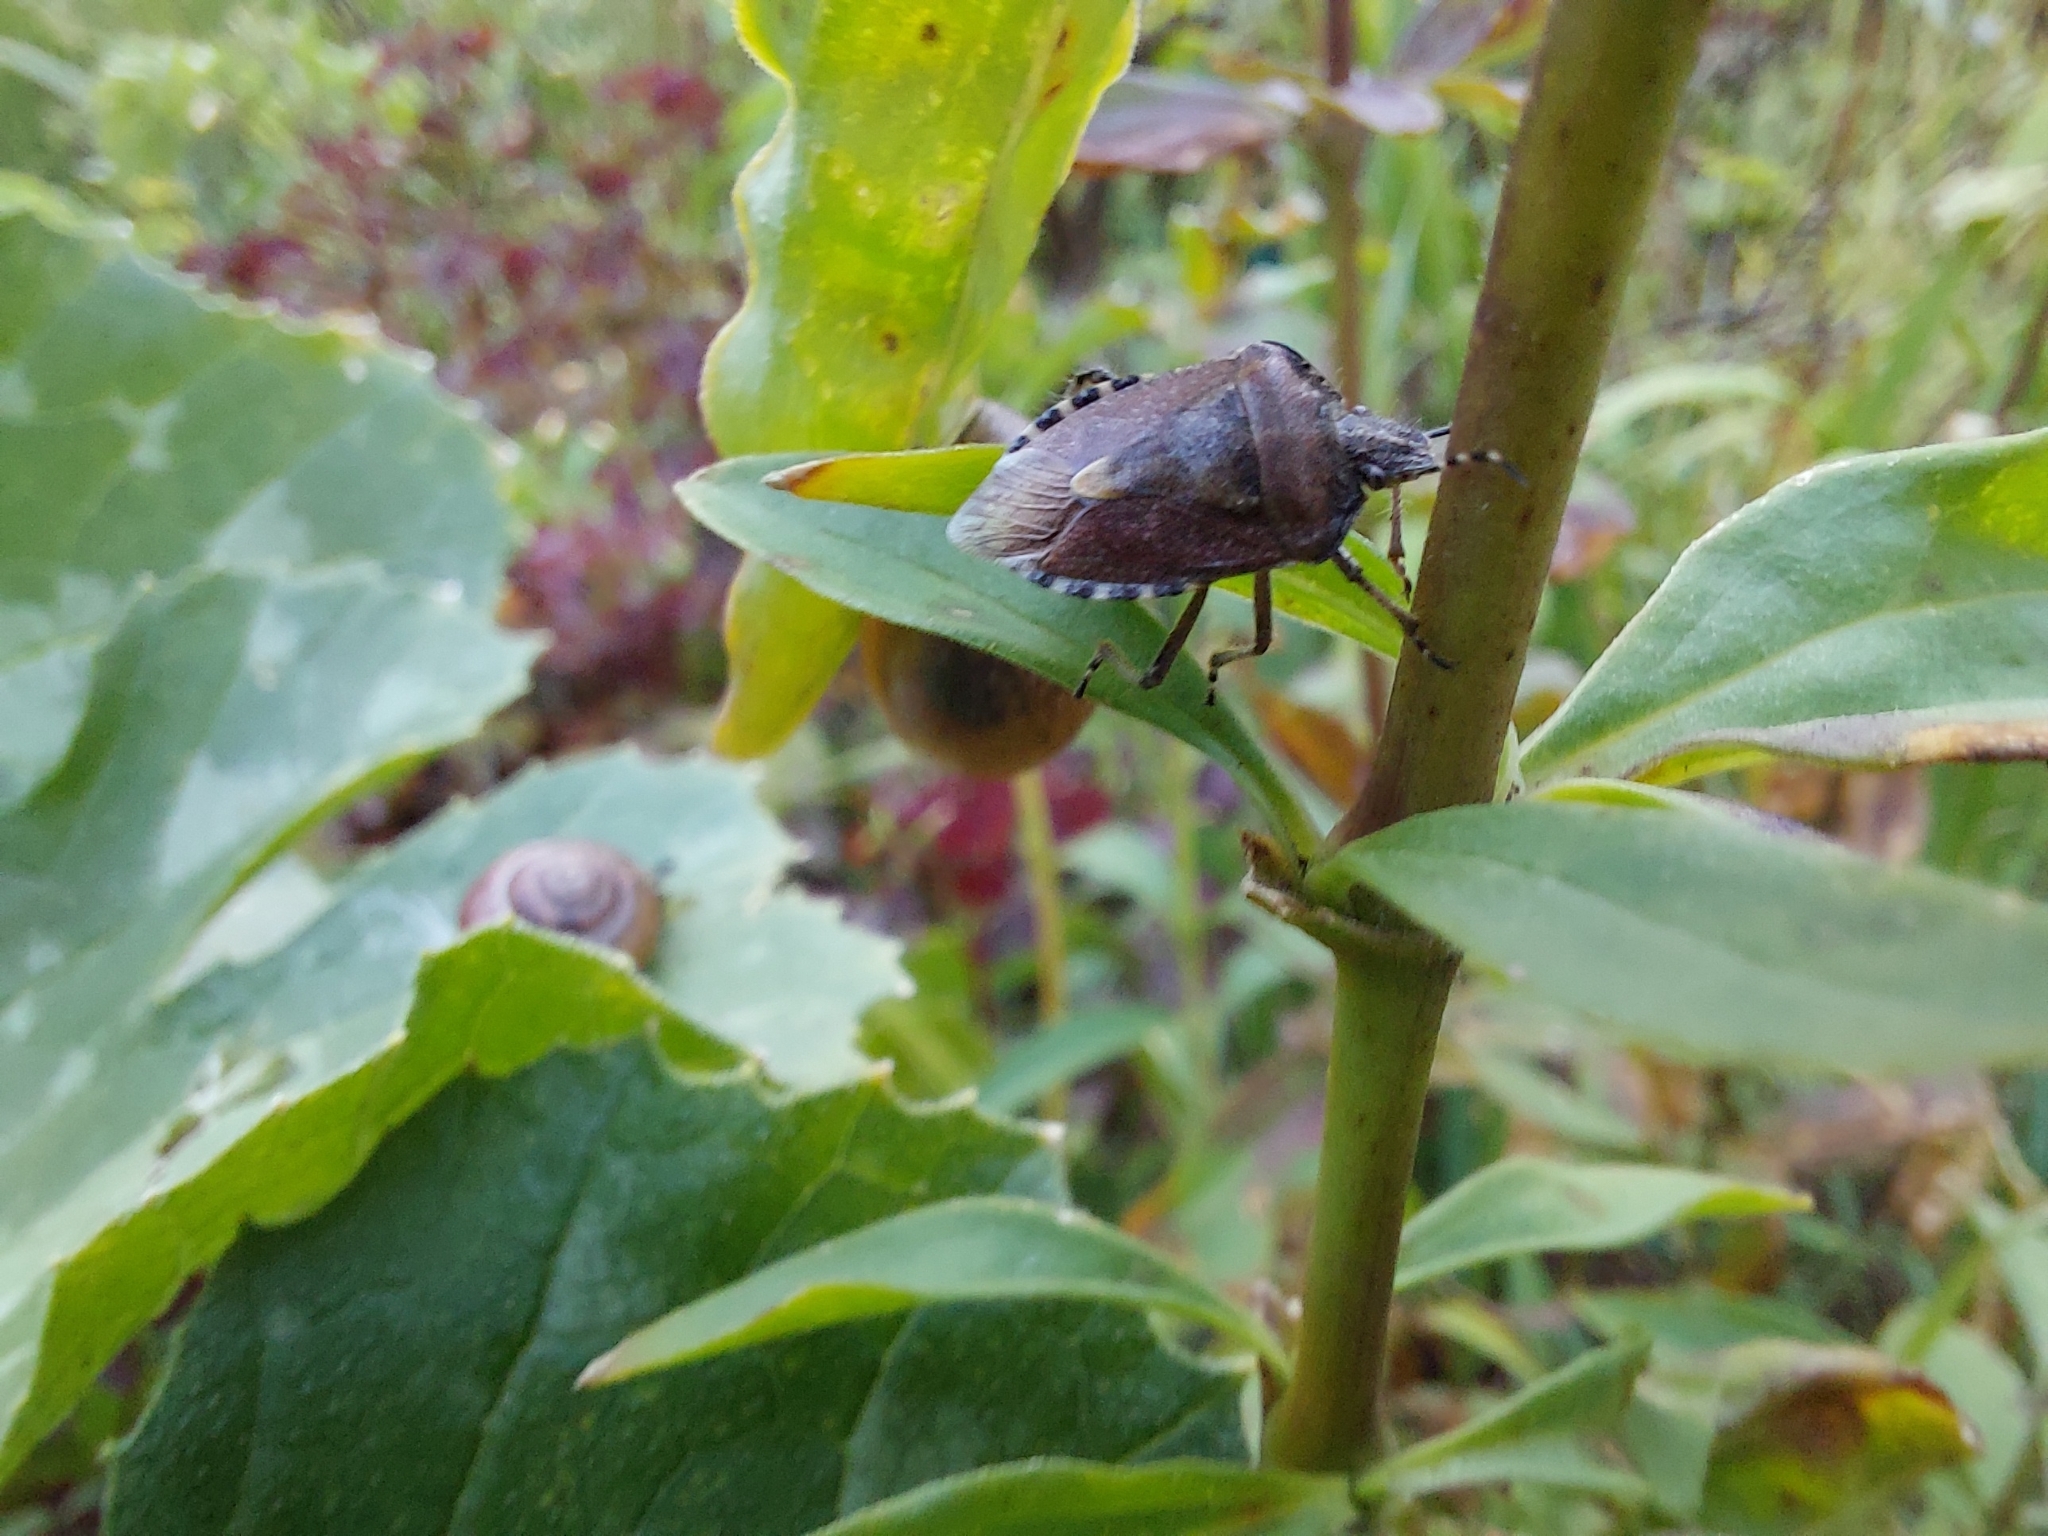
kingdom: Animalia
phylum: Arthropoda
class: Insecta
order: Hemiptera
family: Pentatomidae
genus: Dolycoris
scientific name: Dolycoris baccarum
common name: Sloe bug
